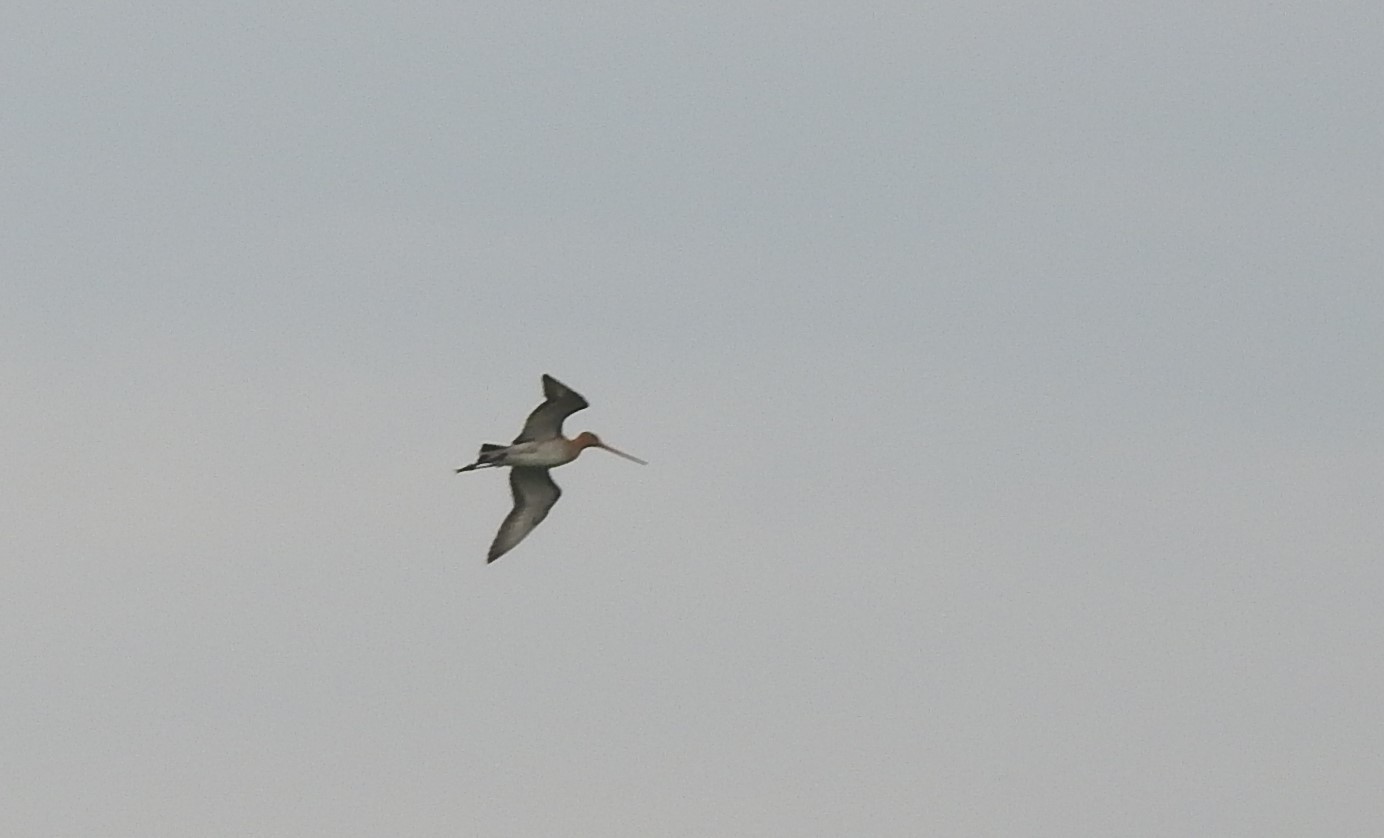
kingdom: Animalia
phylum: Chordata
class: Aves
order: Charadriiformes
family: Scolopacidae
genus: Limosa
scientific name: Limosa limosa
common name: Black-tailed godwit
